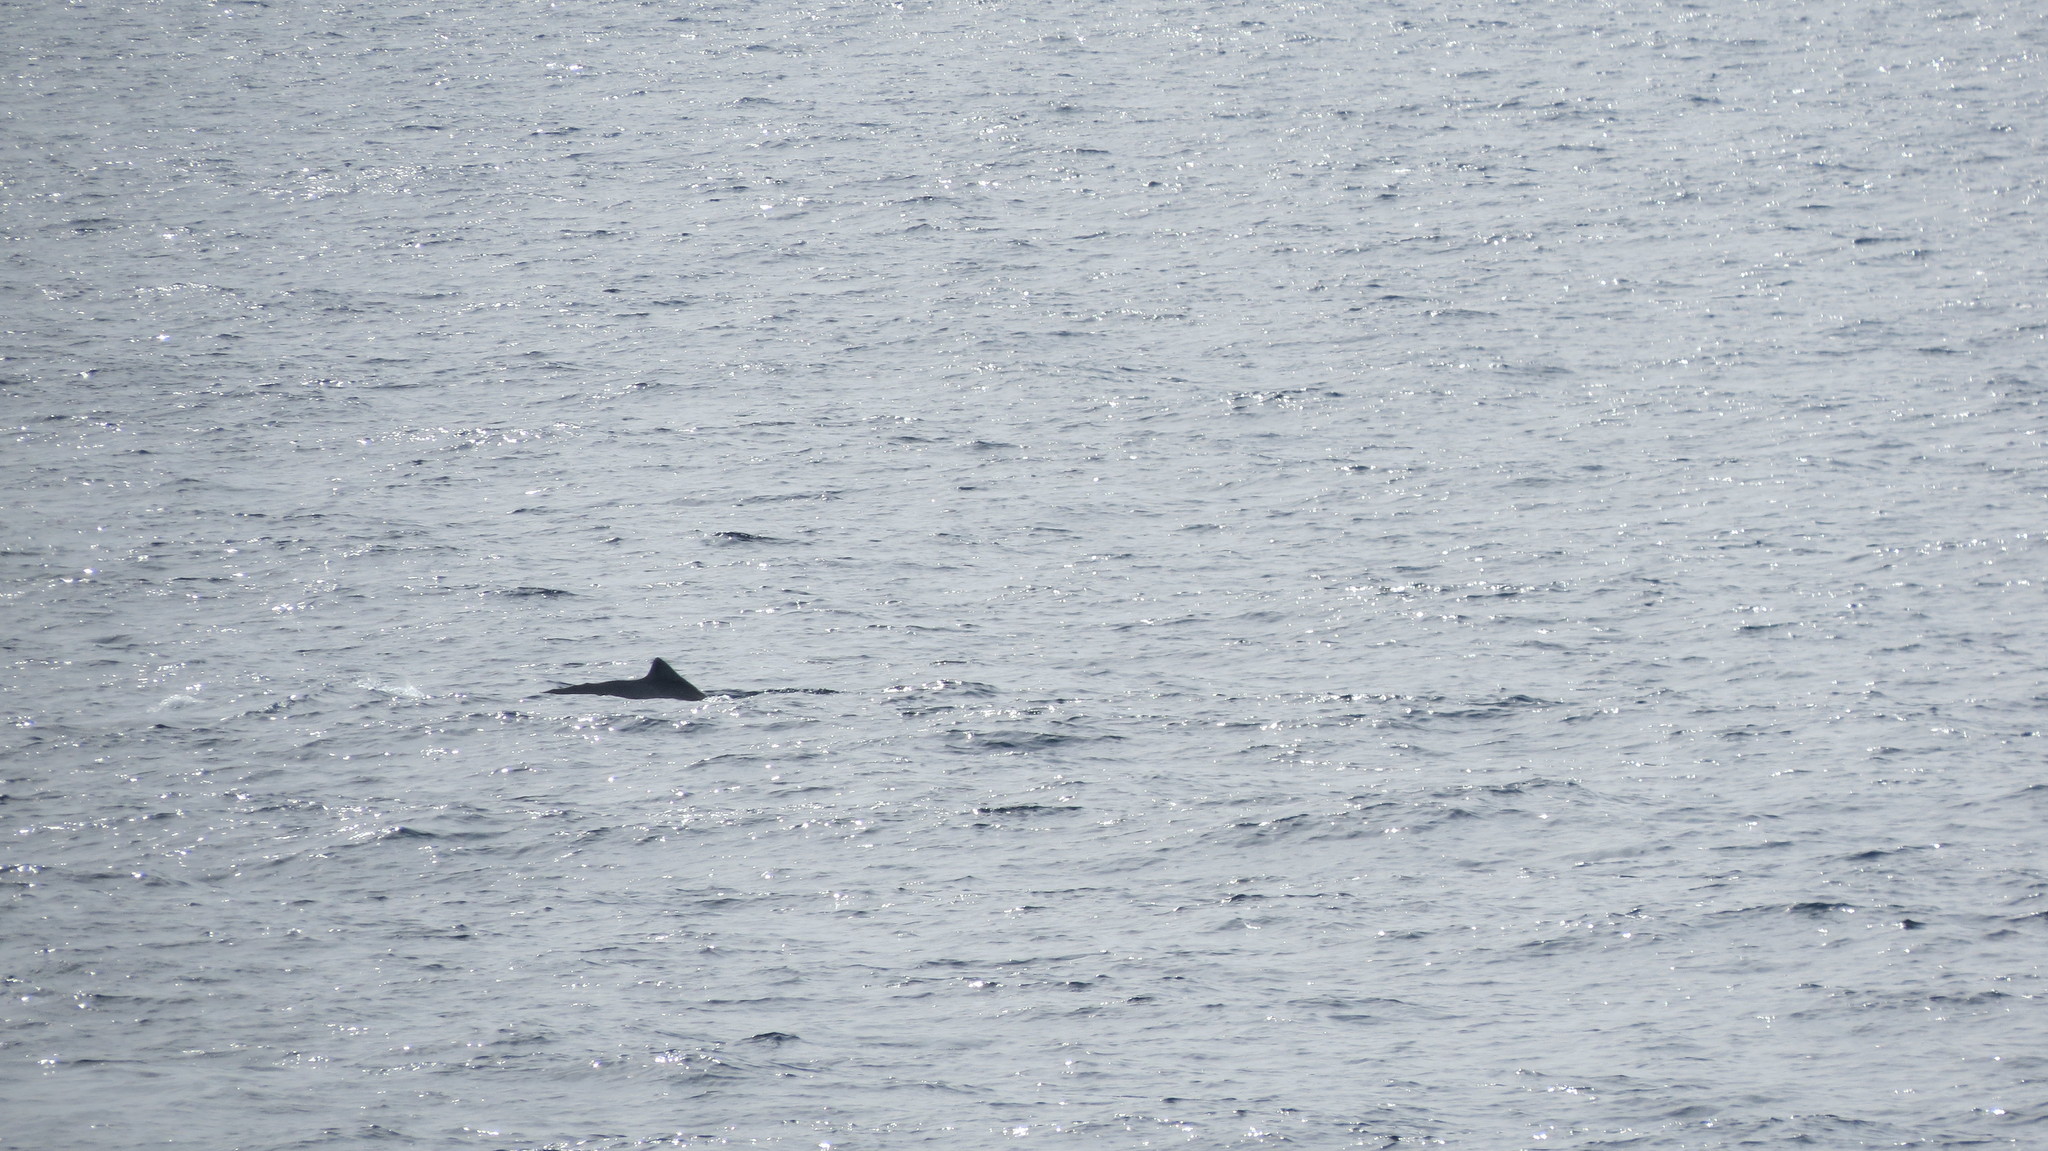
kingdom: Animalia
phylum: Chordata
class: Mammalia
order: Cetacea
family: Balaenopteridae
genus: Megaptera
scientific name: Megaptera novaeangliae
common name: Humpback whale
